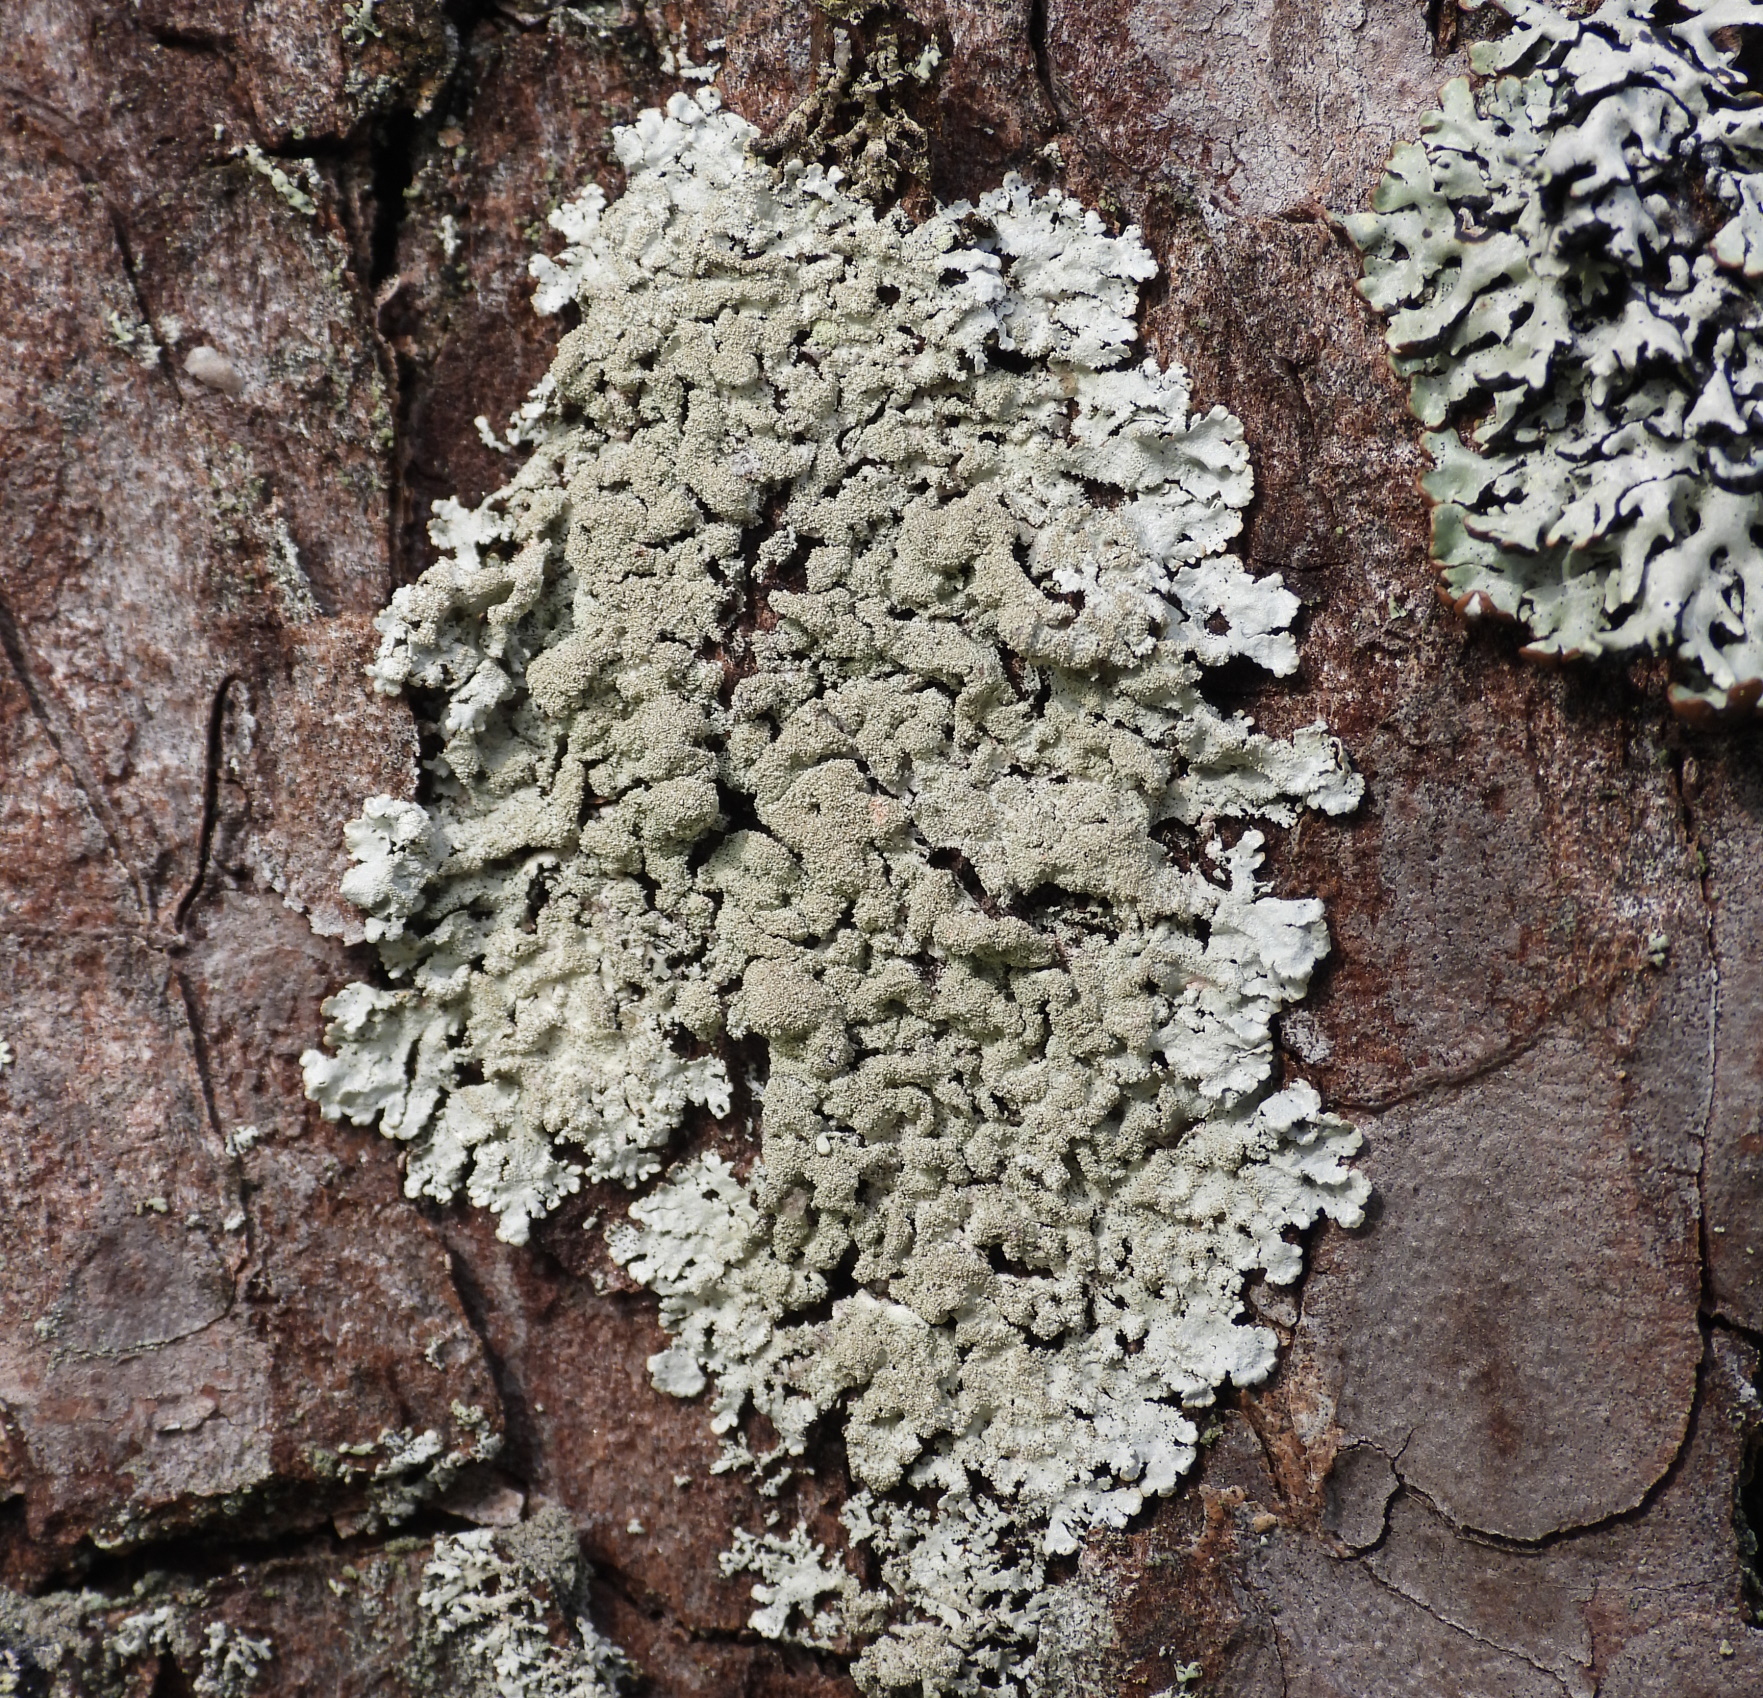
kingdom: Fungi
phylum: Ascomycota
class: Lecanoromycetes
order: Lecanorales
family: Parmeliaceae
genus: Imshaugia
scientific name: Imshaugia aleurites
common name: Salted starburst lichen
